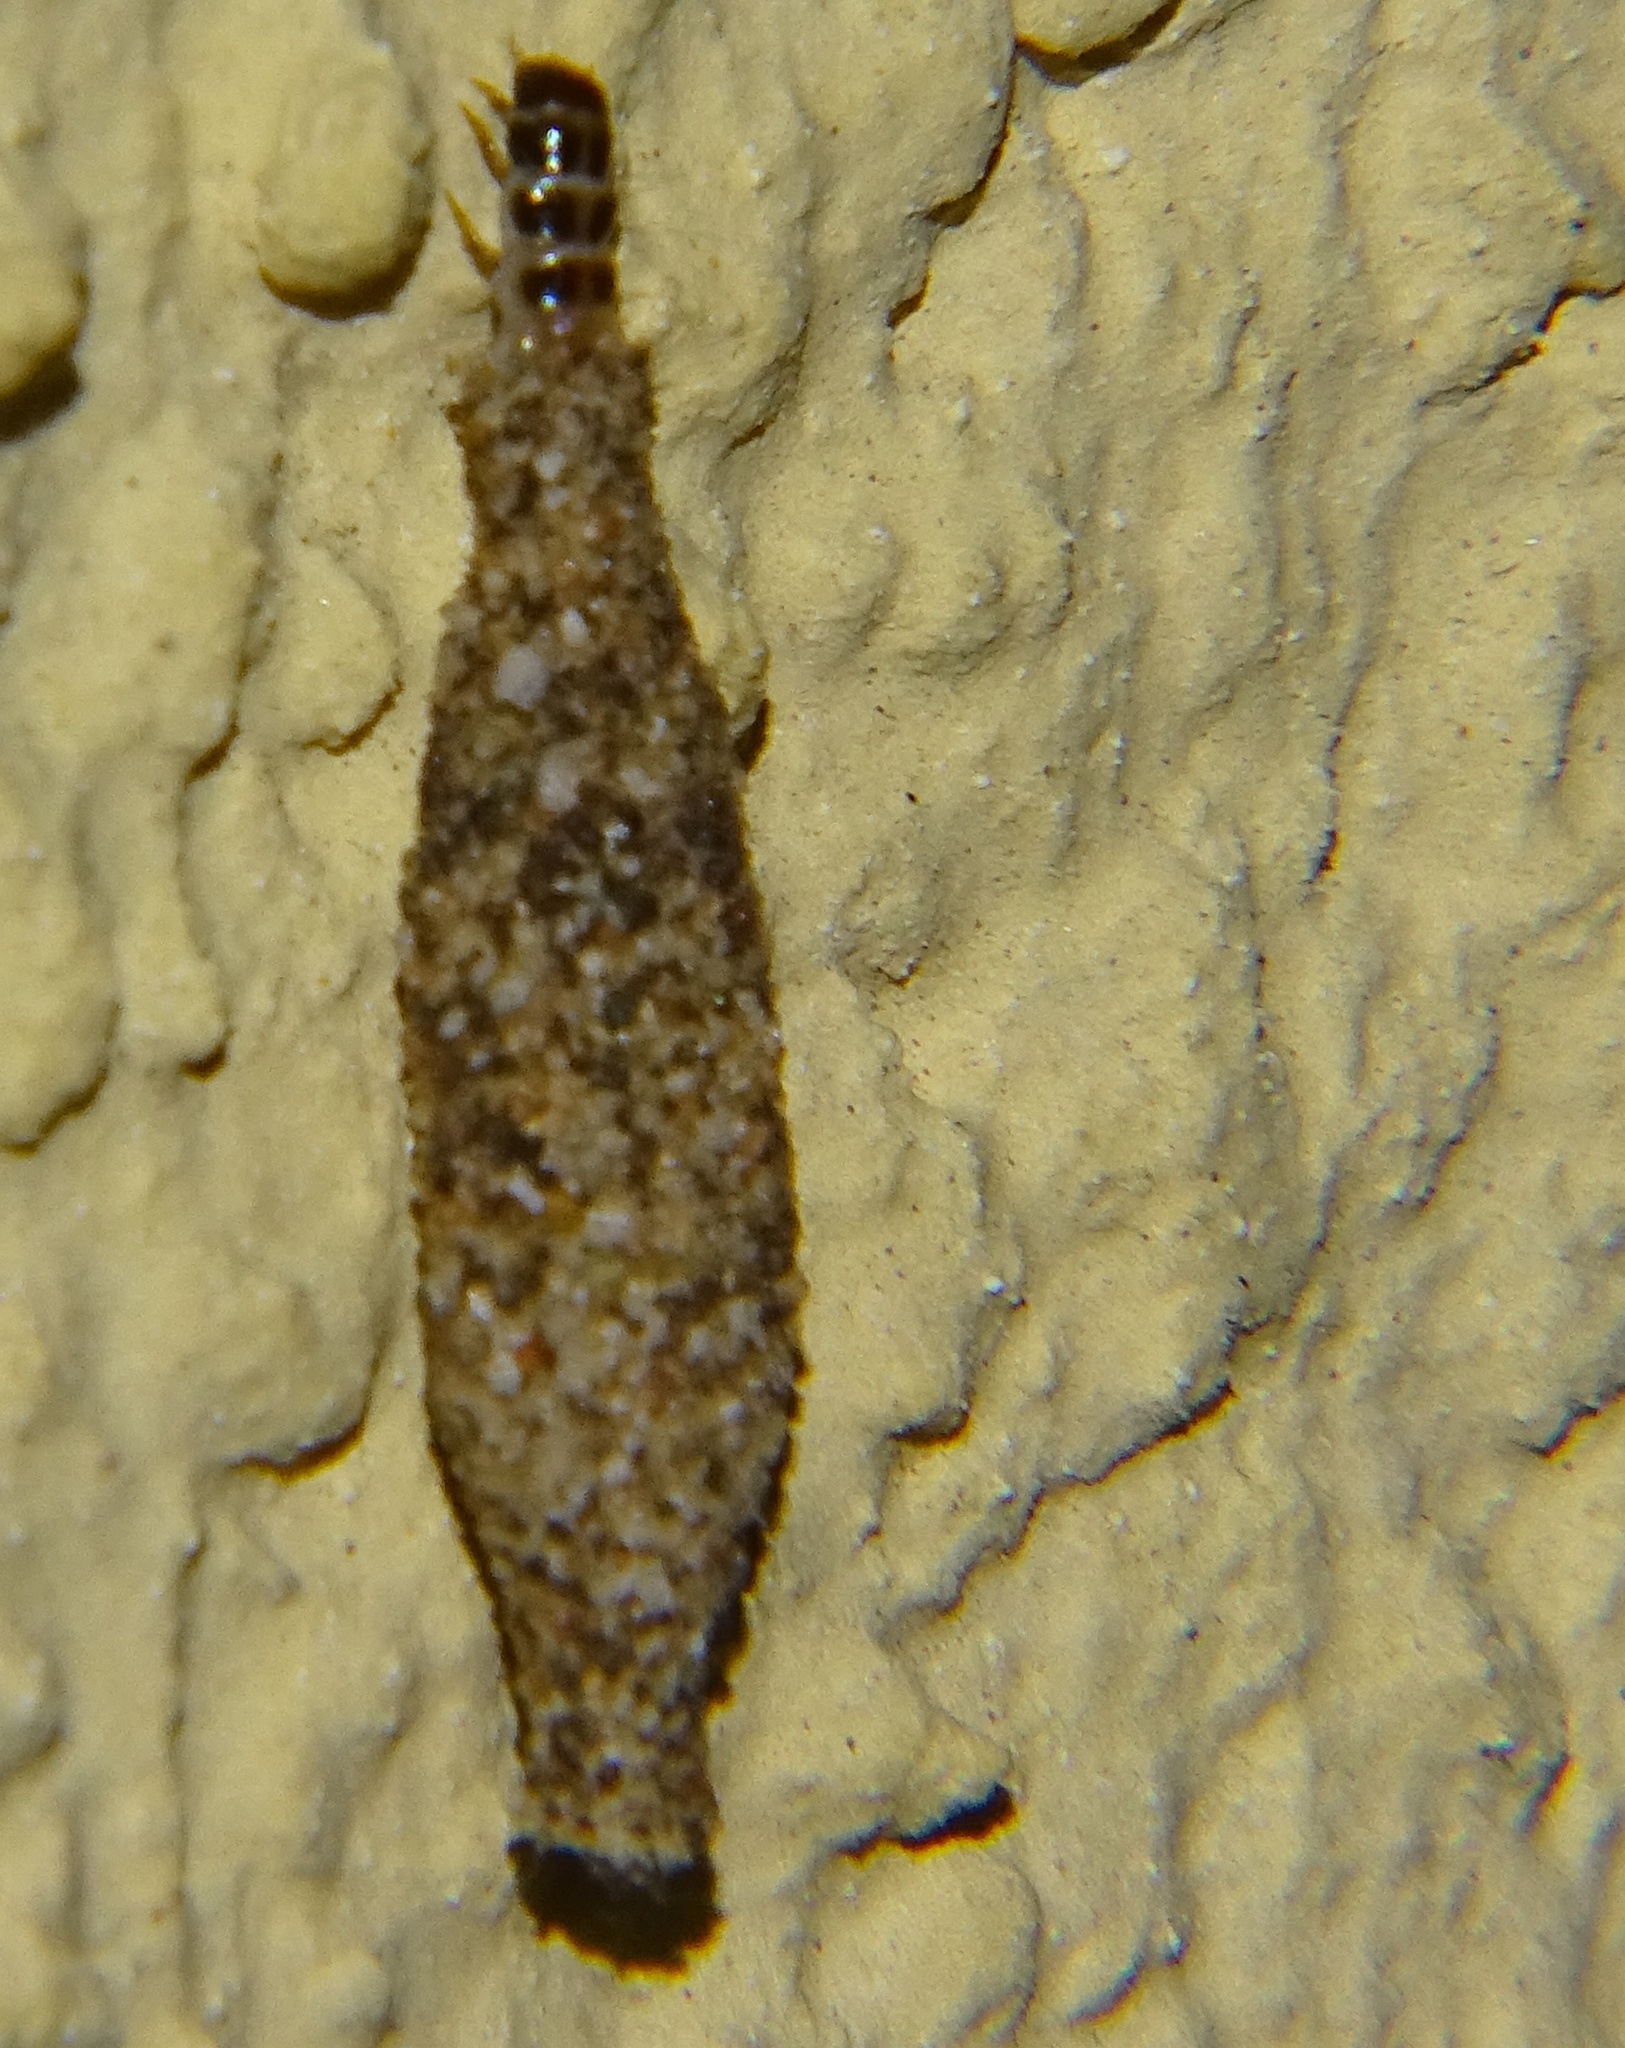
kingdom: Animalia
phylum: Arthropoda
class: Insecta
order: Lepidoptera
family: Tineidae
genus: Phereoeca
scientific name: Phereoeca uterella
